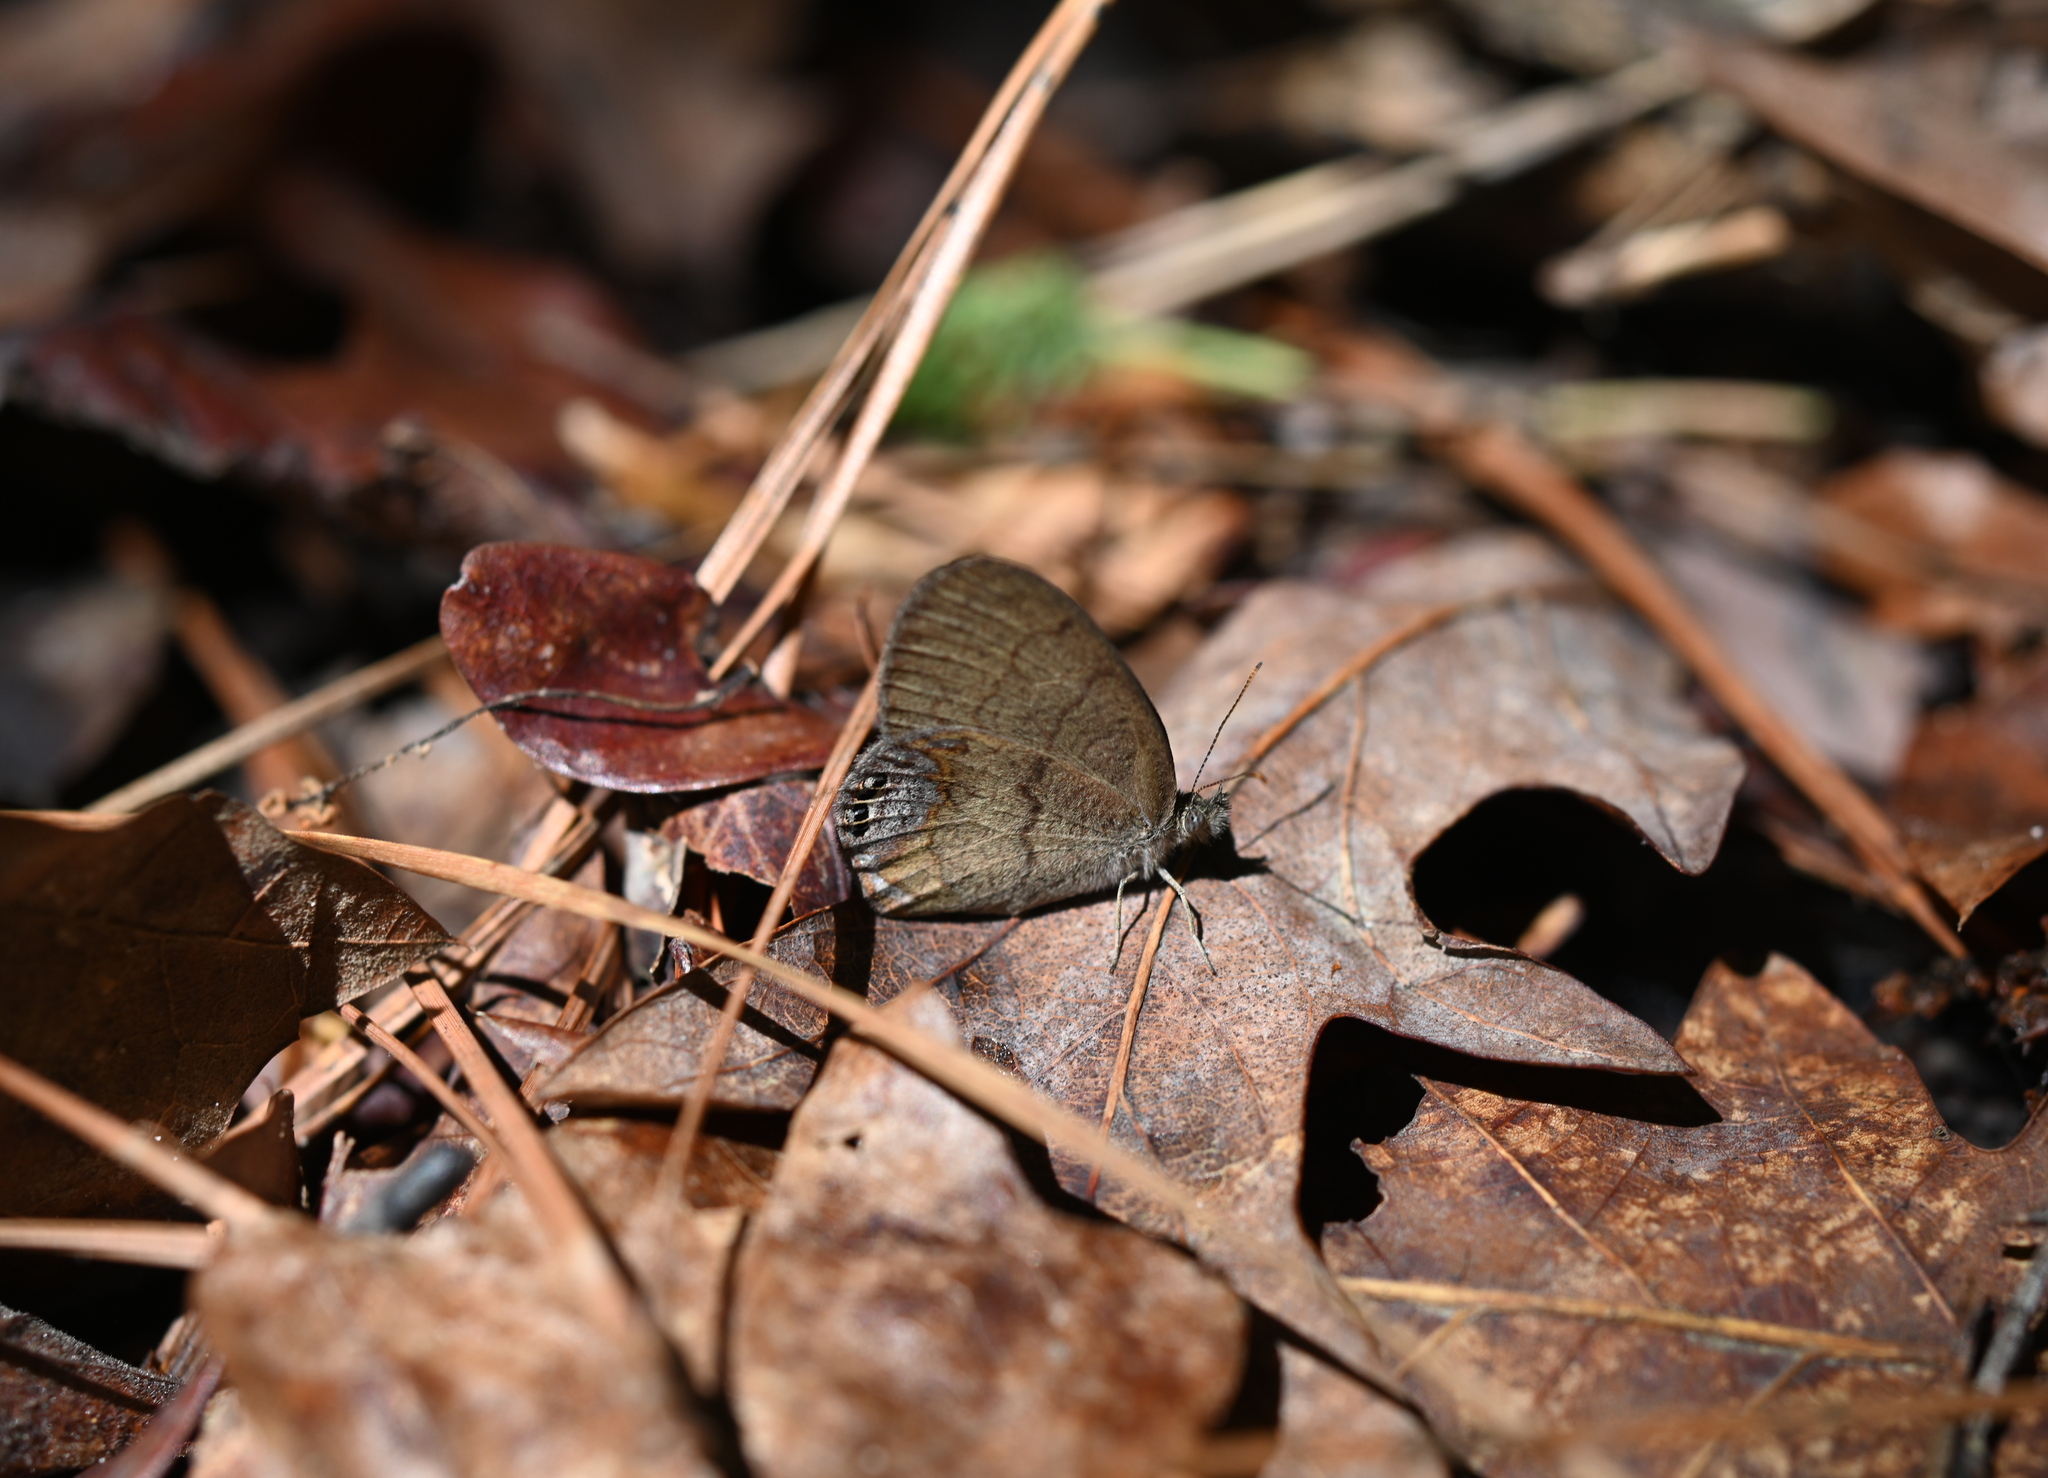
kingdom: Animalia
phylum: Arthropoda
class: Insecta
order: Lepidoptera
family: Nymphalidae
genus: Euptychia
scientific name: Euptychia cornelius
